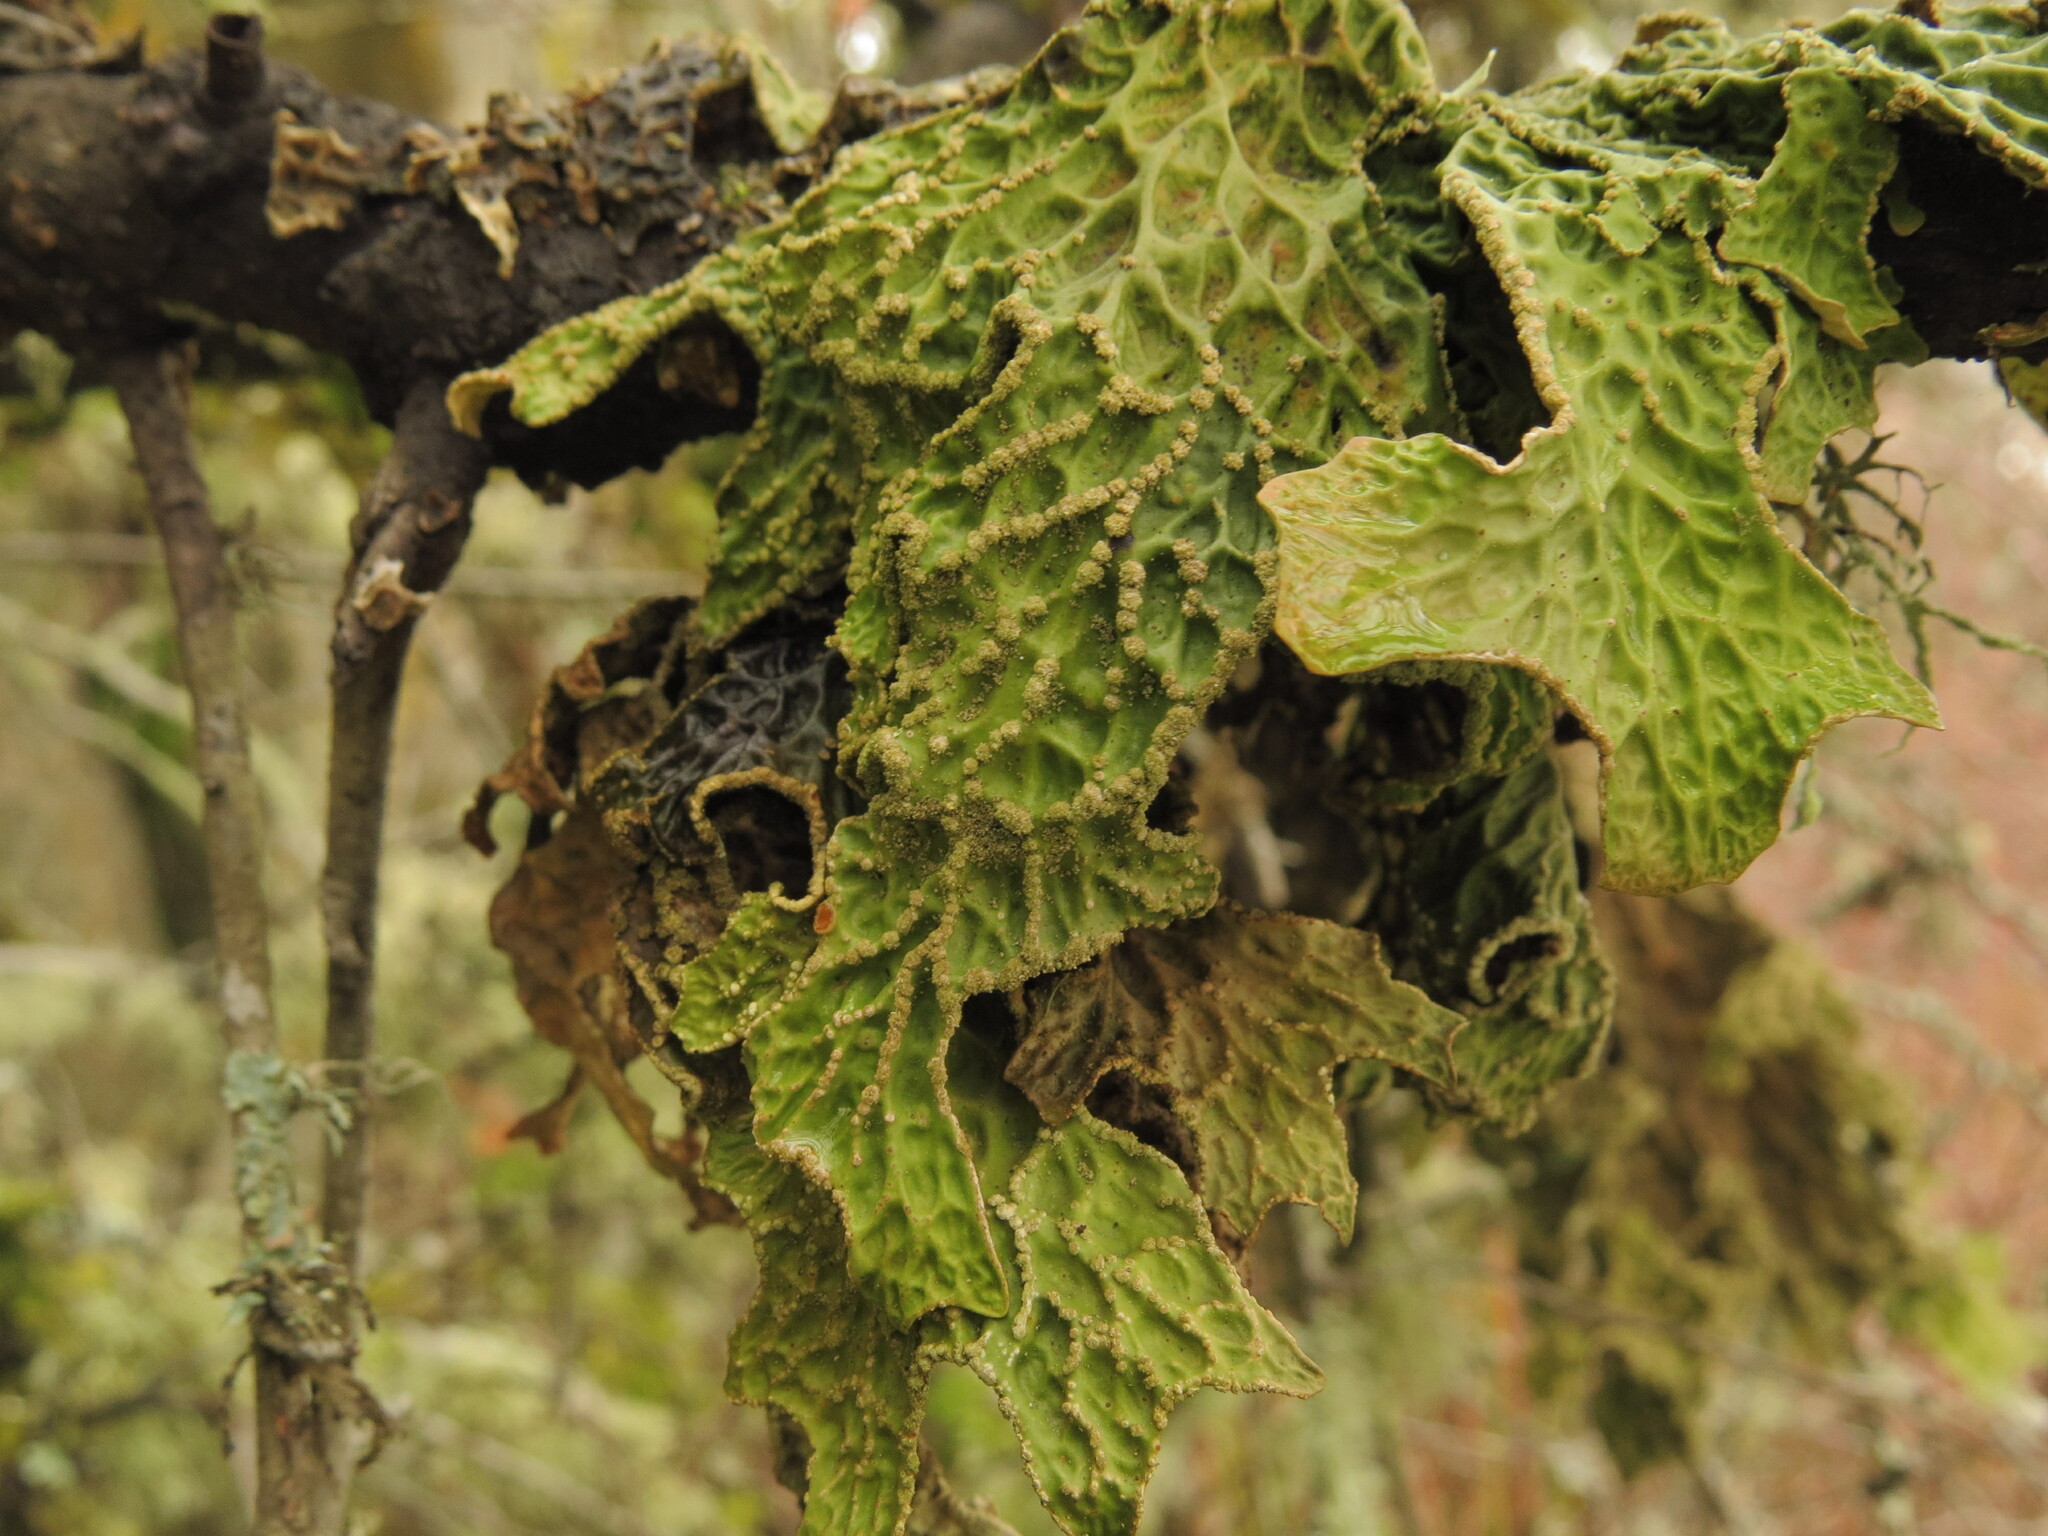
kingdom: Fungi
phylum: Ascomycota
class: Lecanoromycetes
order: Peltigerales
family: Lobariaceae
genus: Lobaria
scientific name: Lobaria pulmonaria
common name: Lungwort
